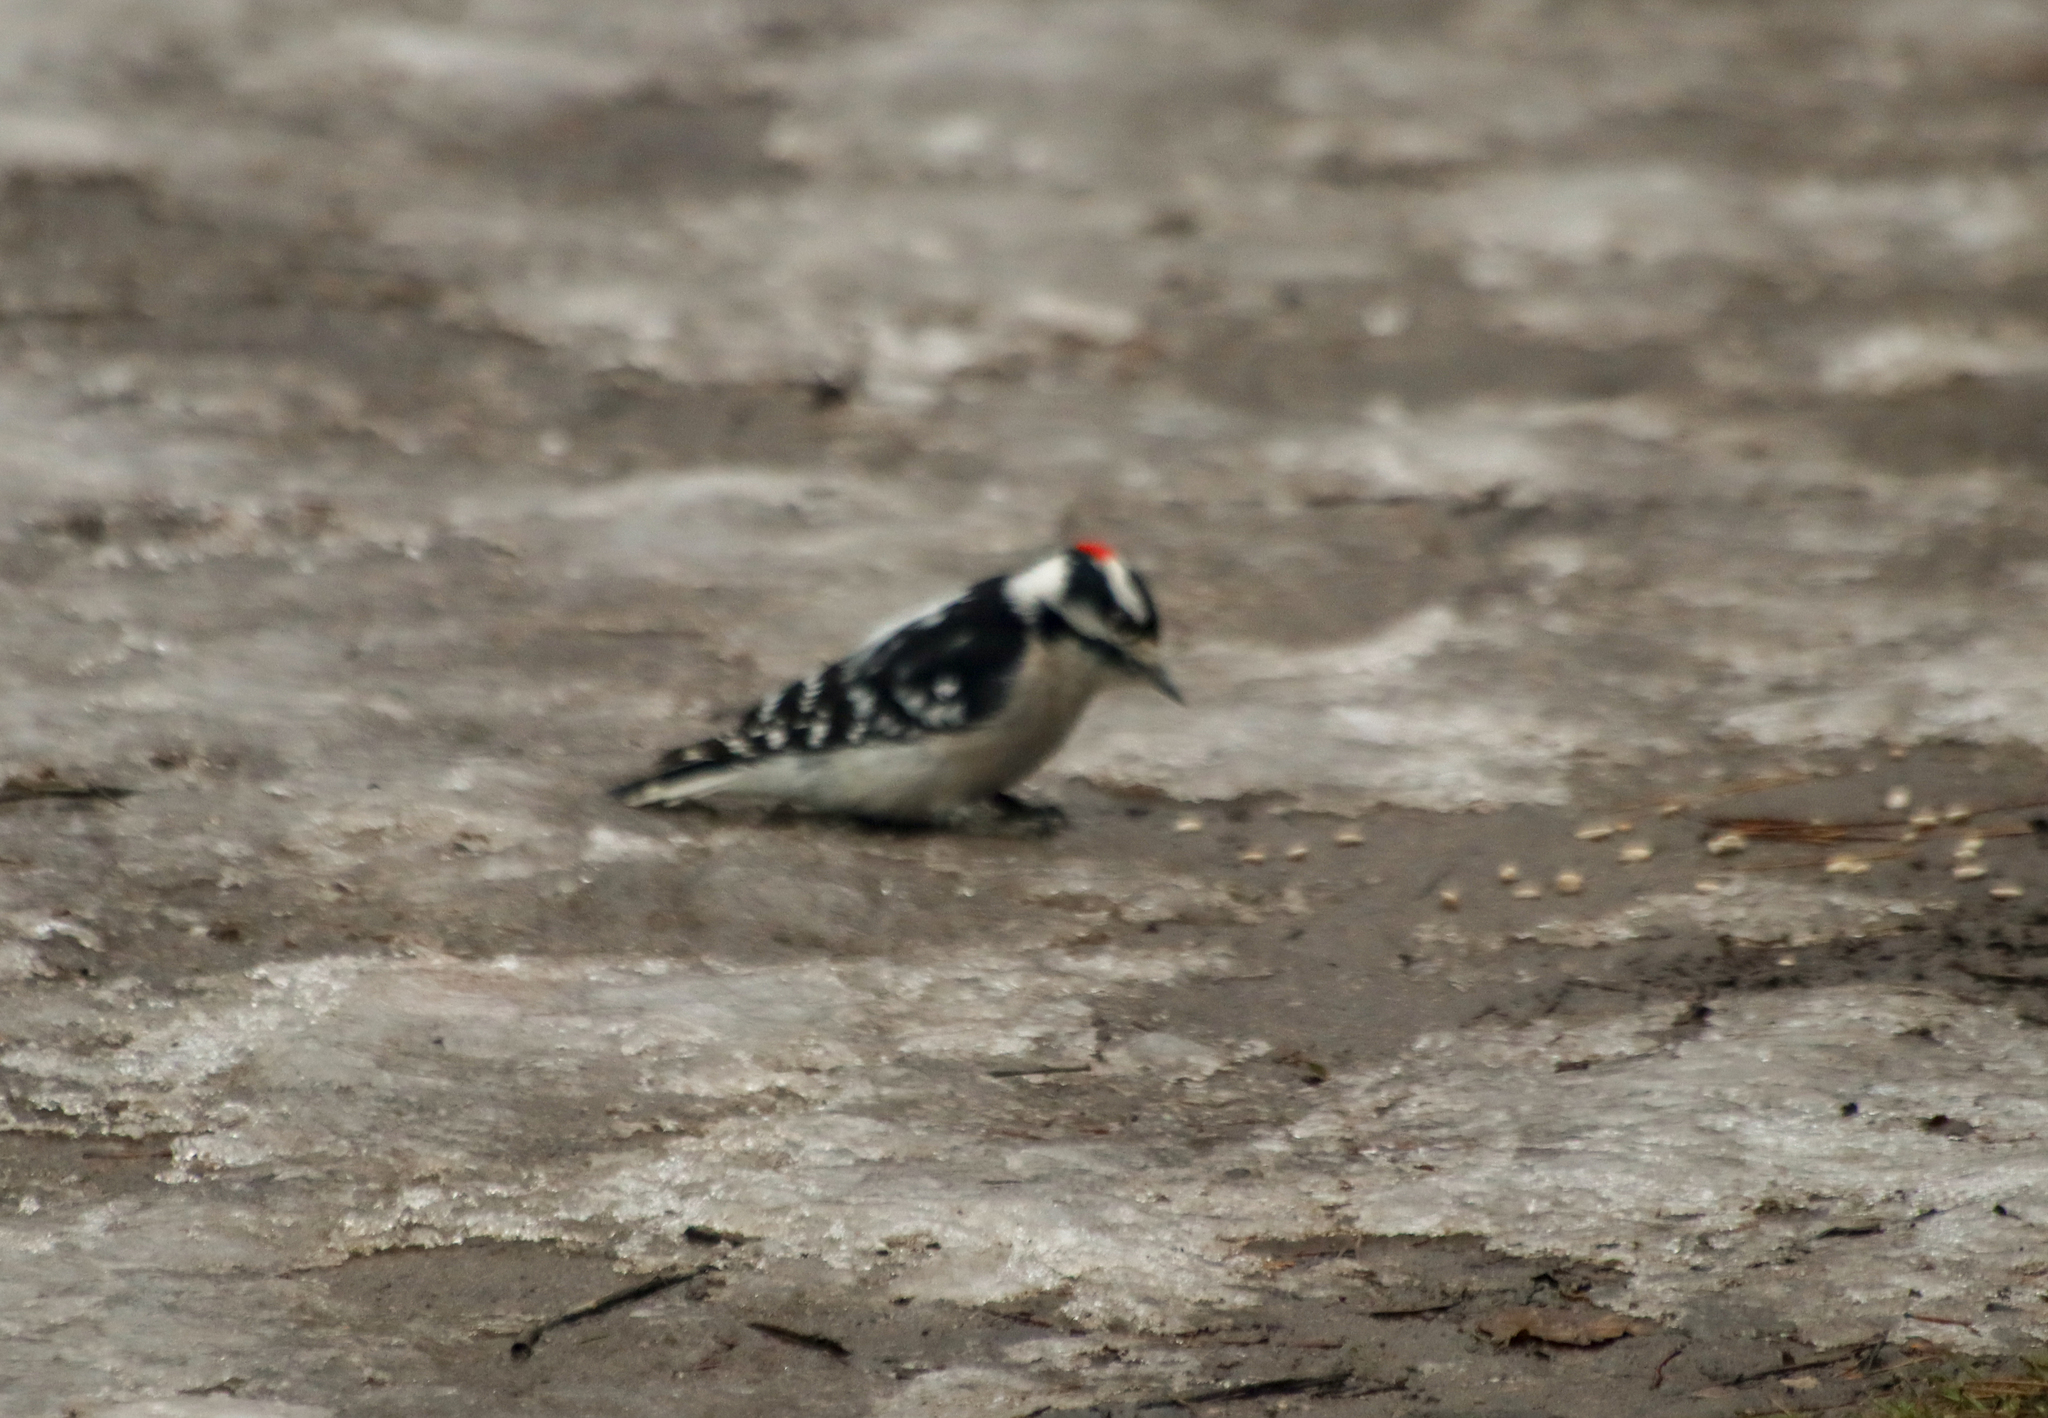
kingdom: Animalia
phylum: Chordata
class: Aves
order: Piciformes
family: Picidae
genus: Dryobates
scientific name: Dryobates pubescens
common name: Downy woodpecker
